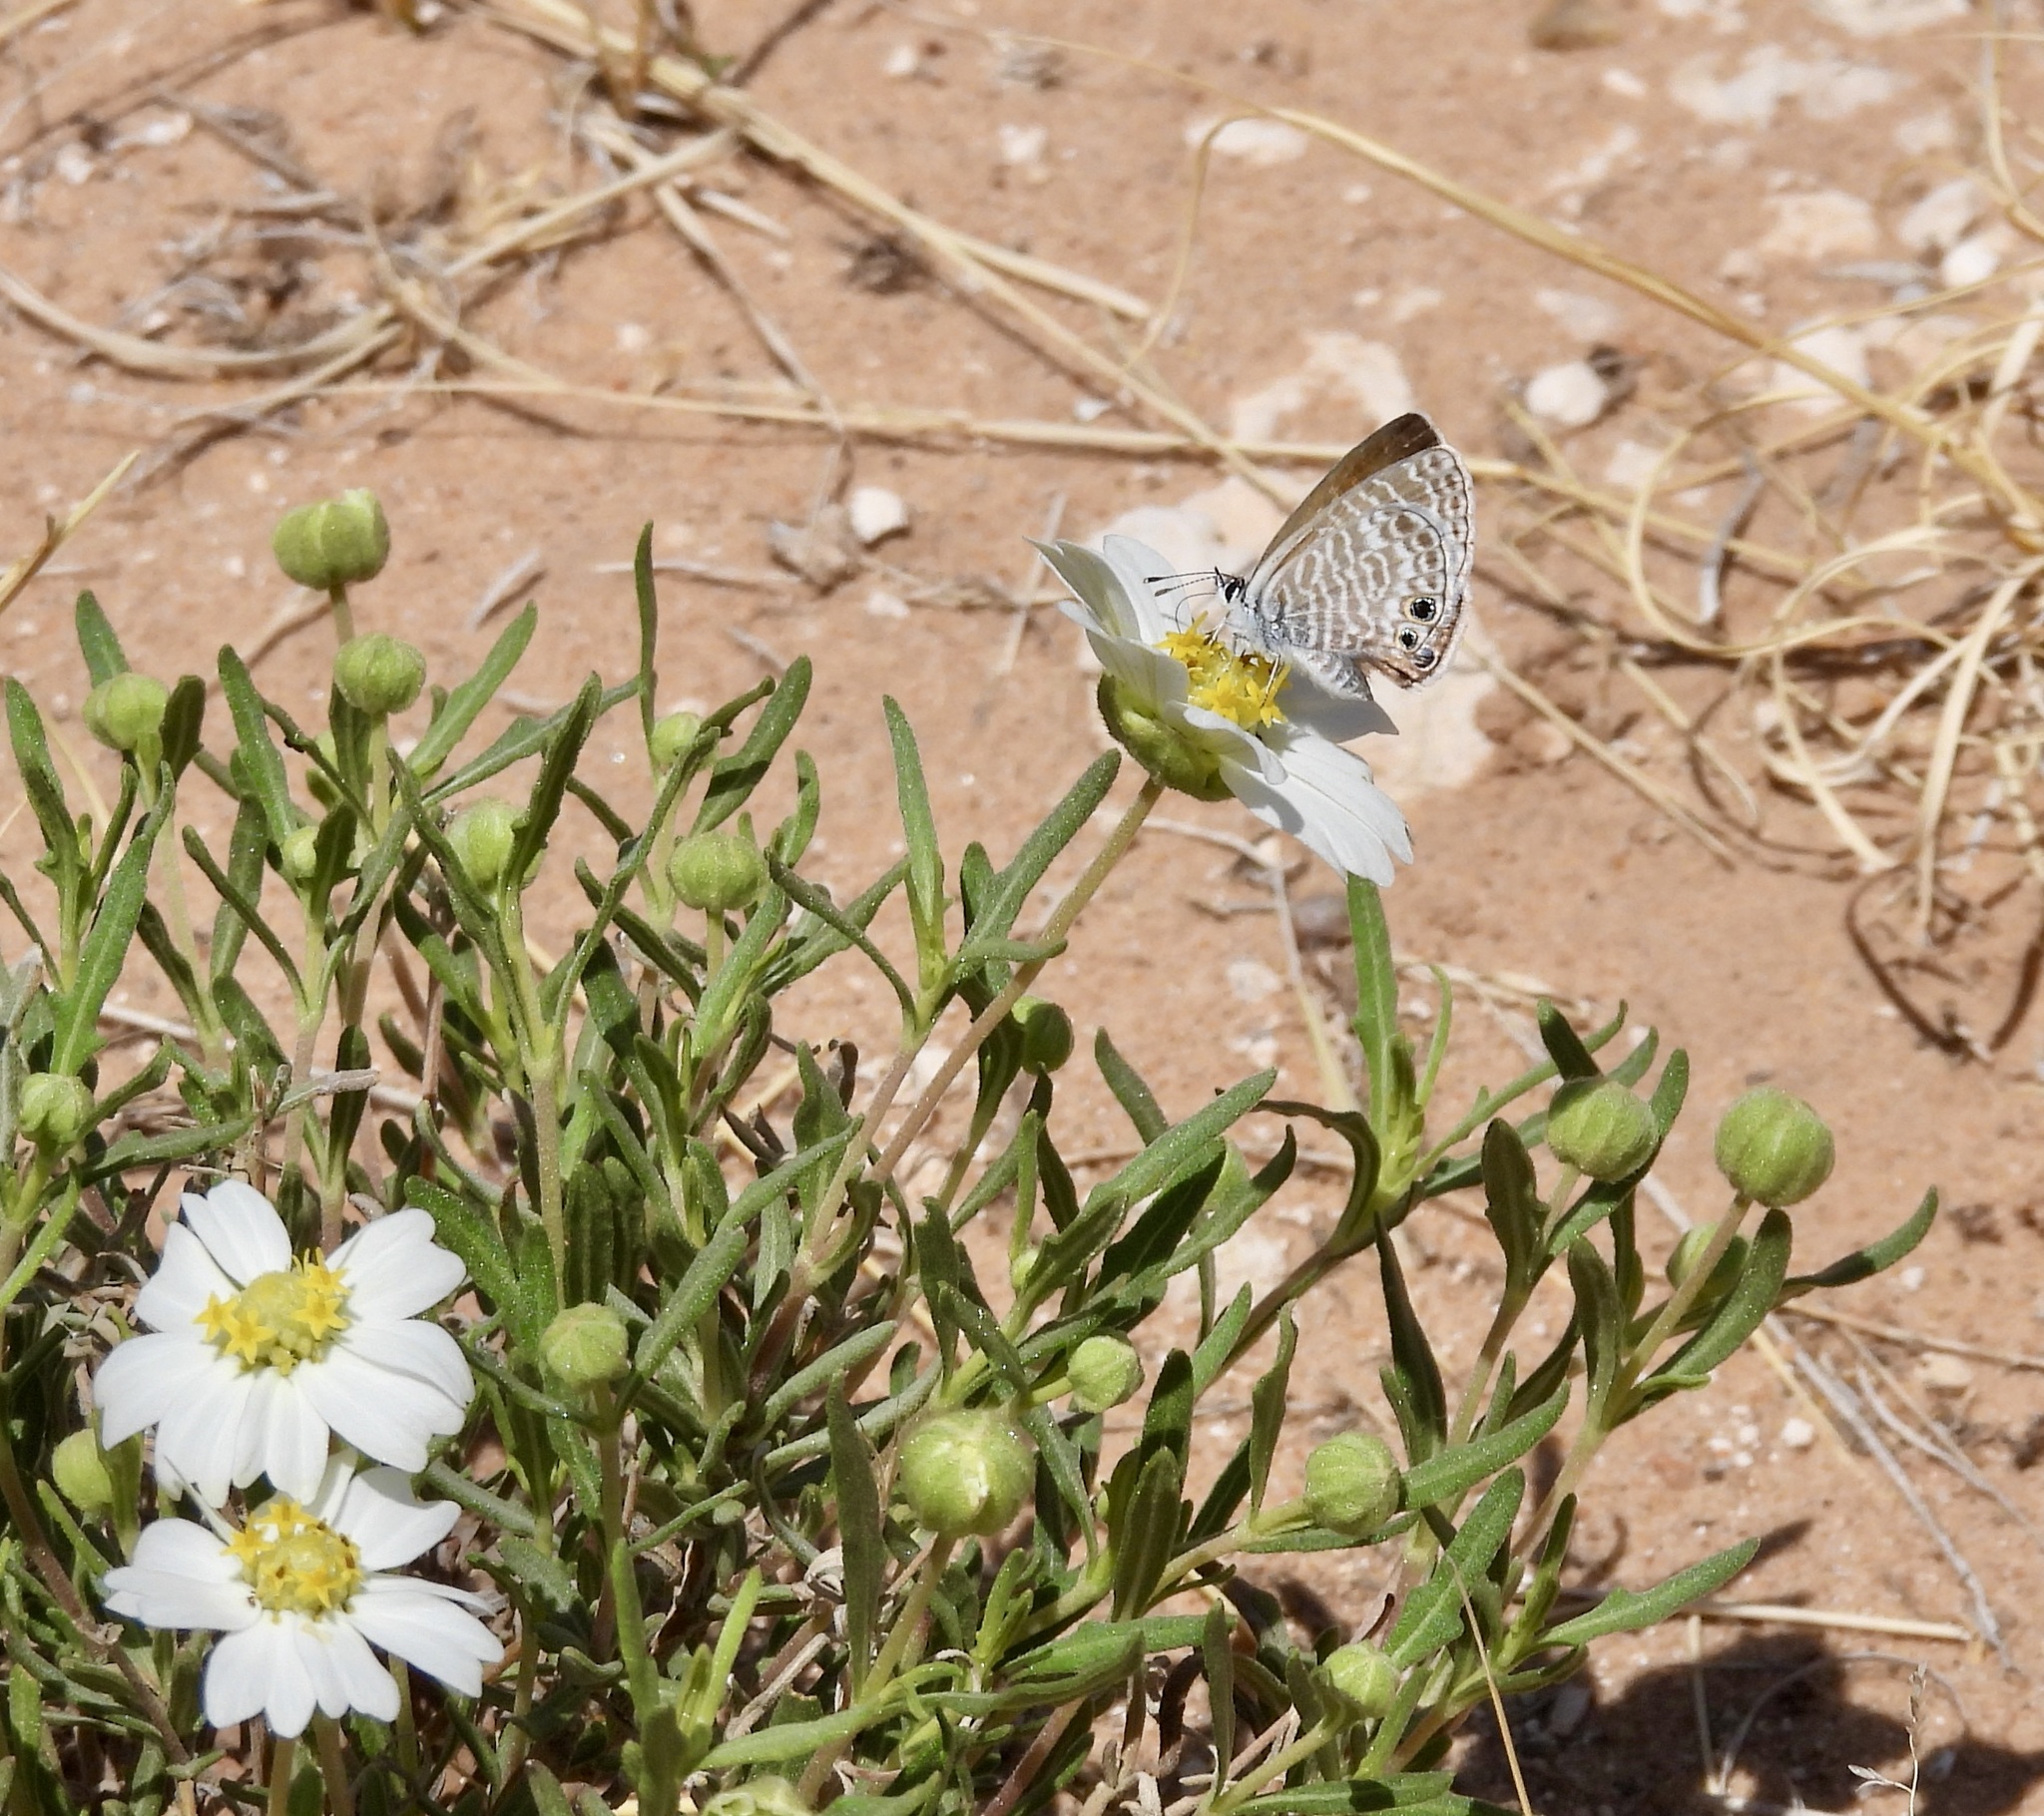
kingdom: Animalia
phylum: Arthropoda
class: Insecta
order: Lepidoptera
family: Lycaenidae
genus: Leptotes
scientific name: Leptotes marina
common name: Marine blue
